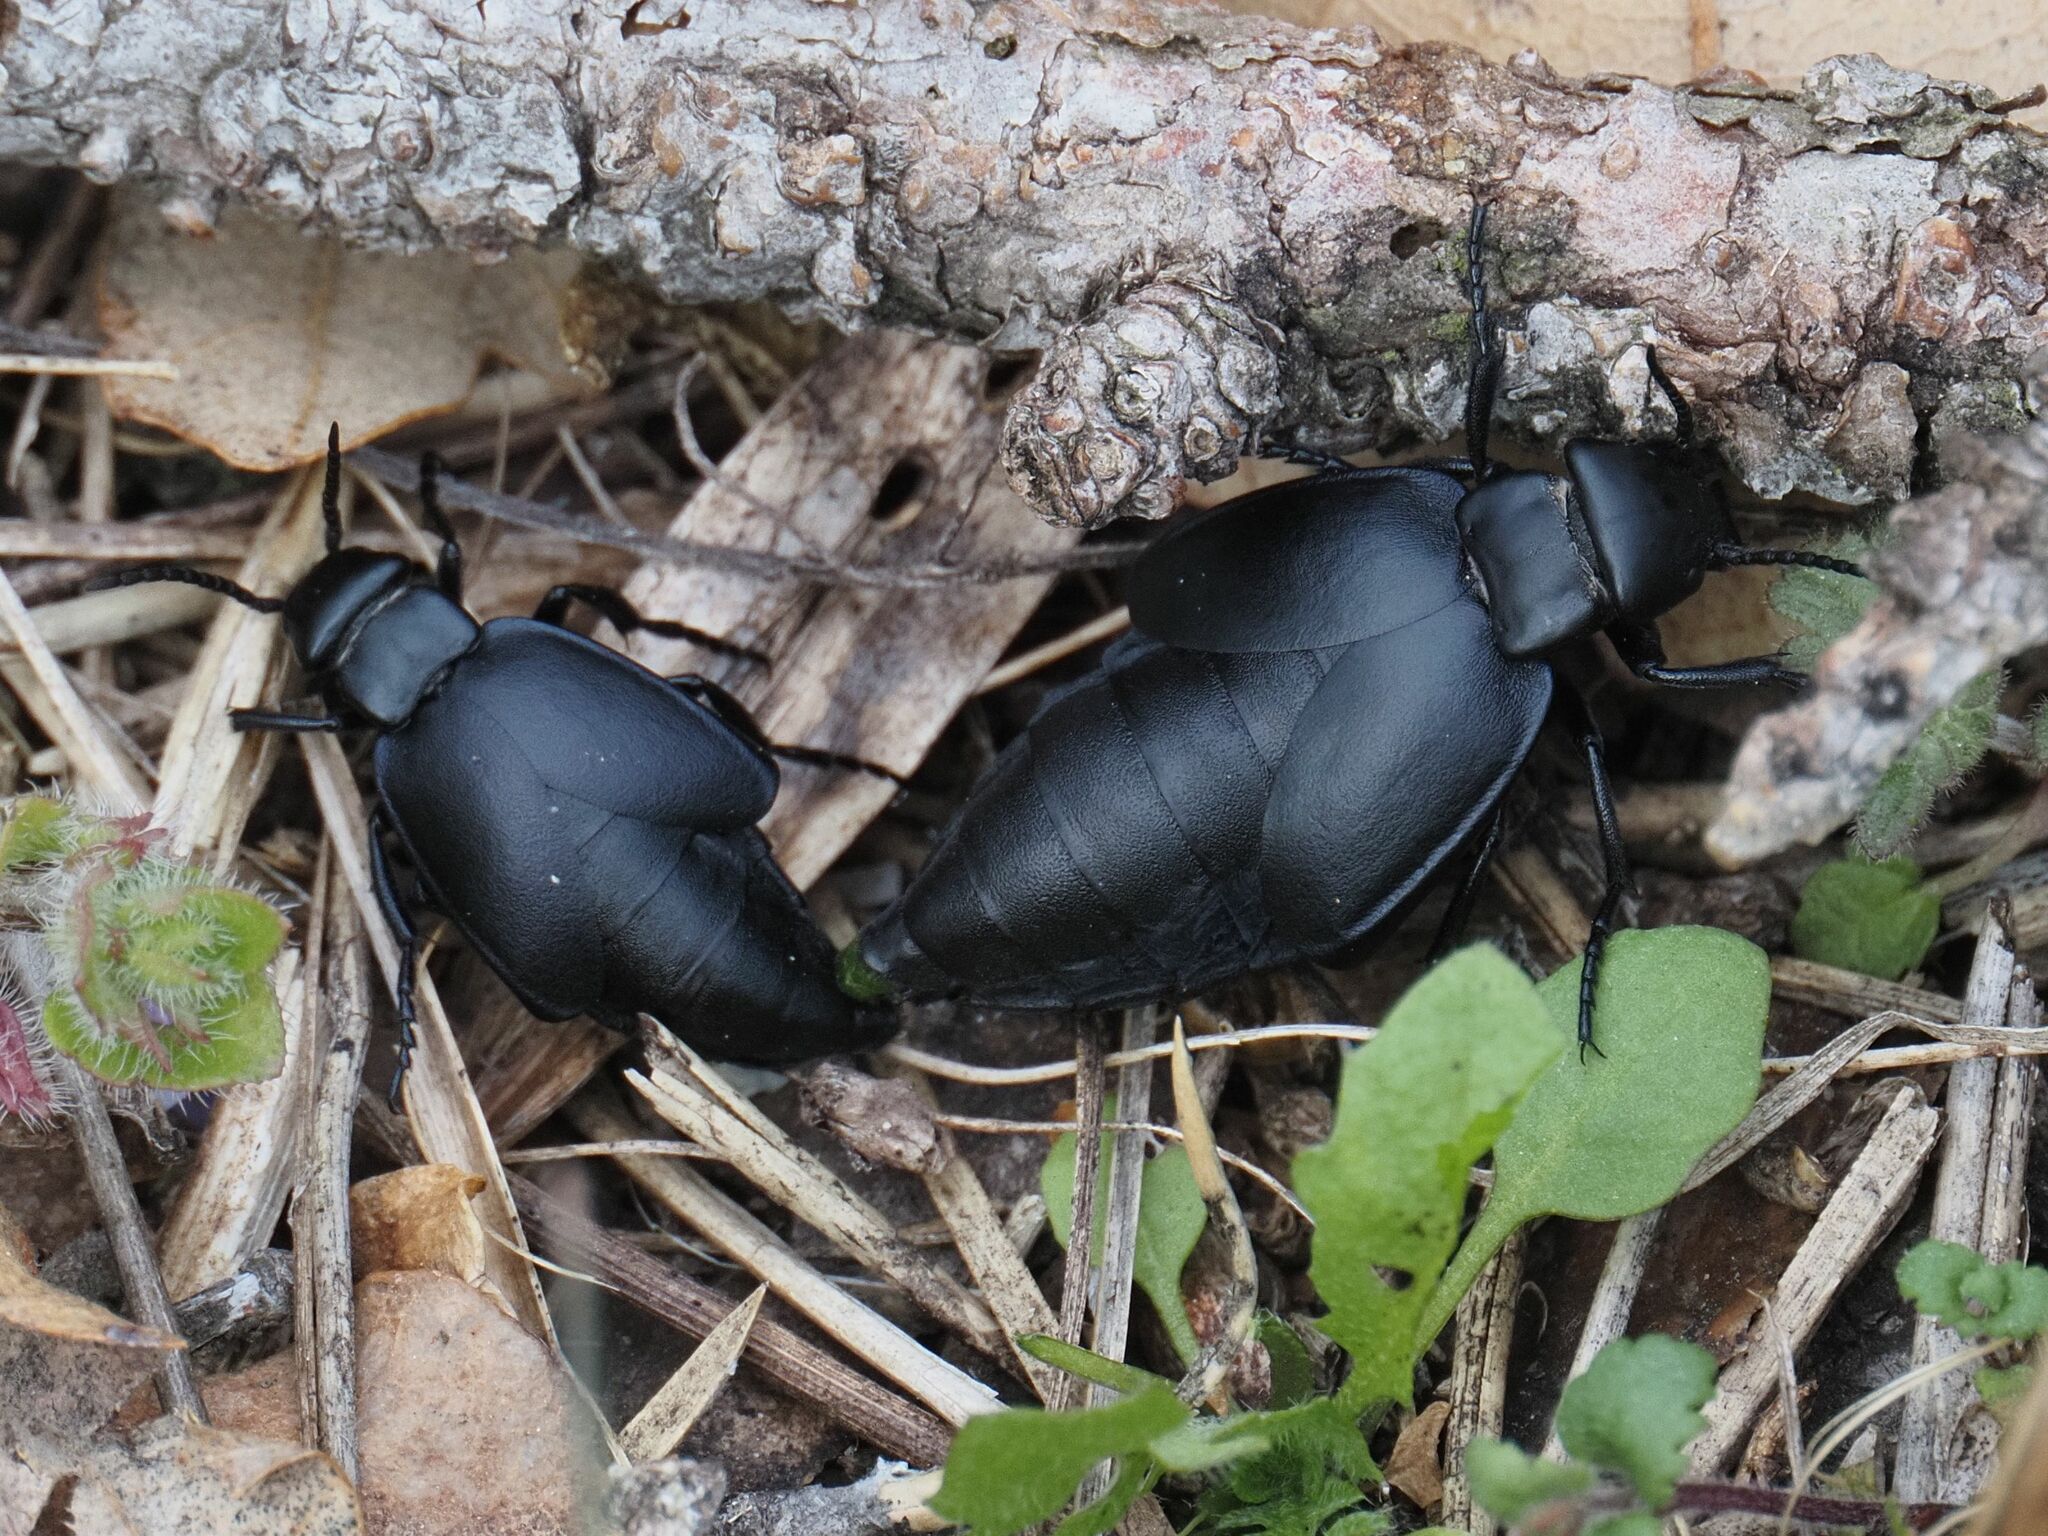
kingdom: Animalia
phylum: Arthropoda
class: Insecta
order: Coleoptera
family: Meloidae
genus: Meloe
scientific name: Meloe uralensis
